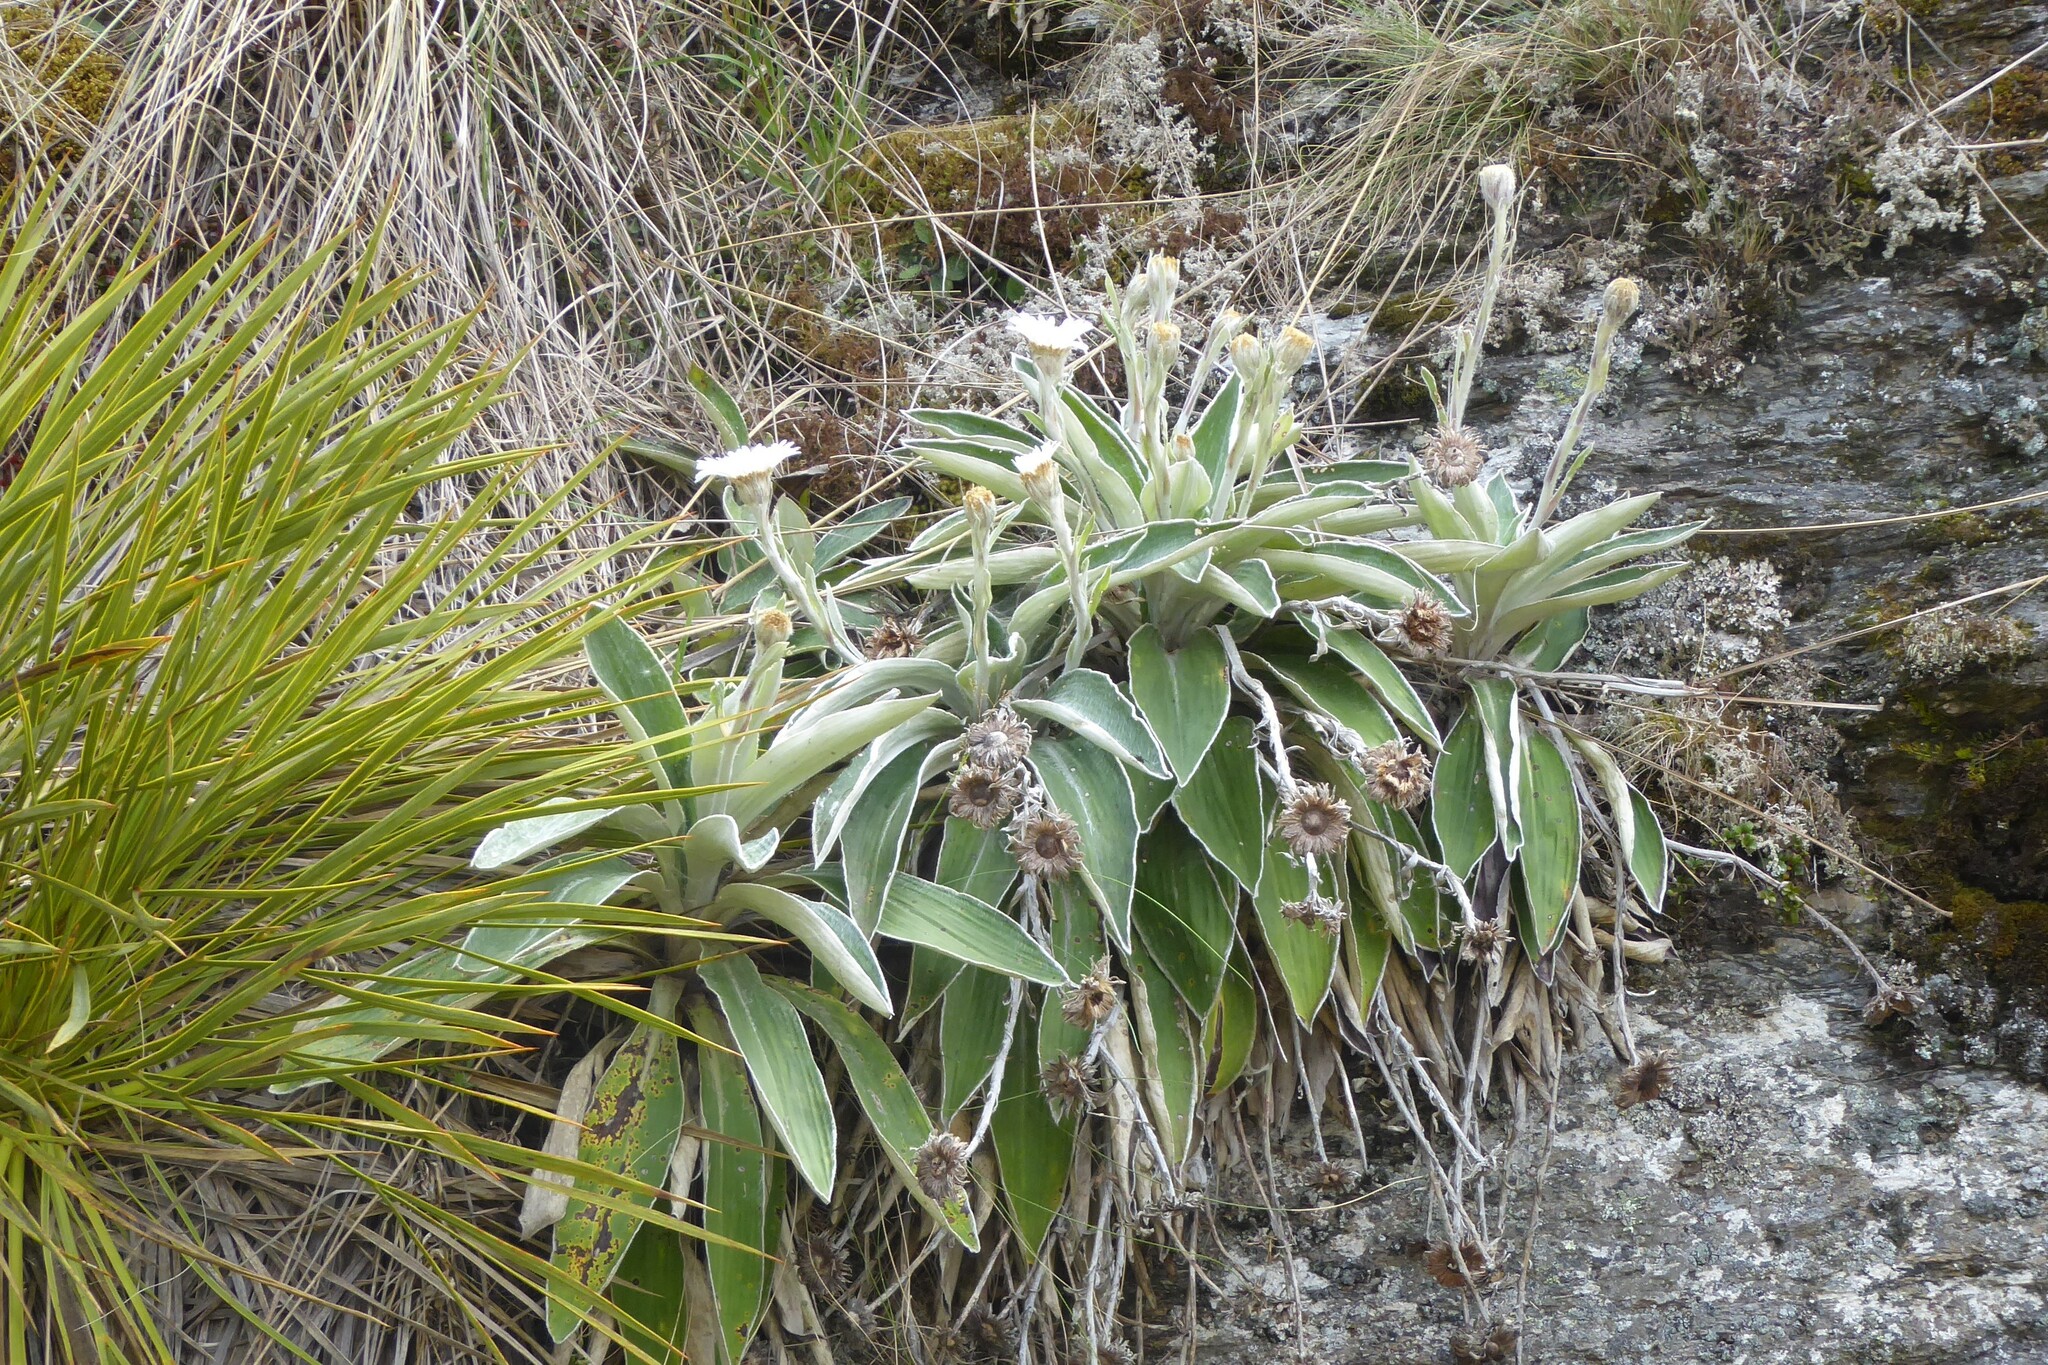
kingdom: Plantae
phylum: Tracheophyta
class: Magnoliopsida
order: Asterales
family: Asteraceae
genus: Celmisia
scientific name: Celmisia hookeri
